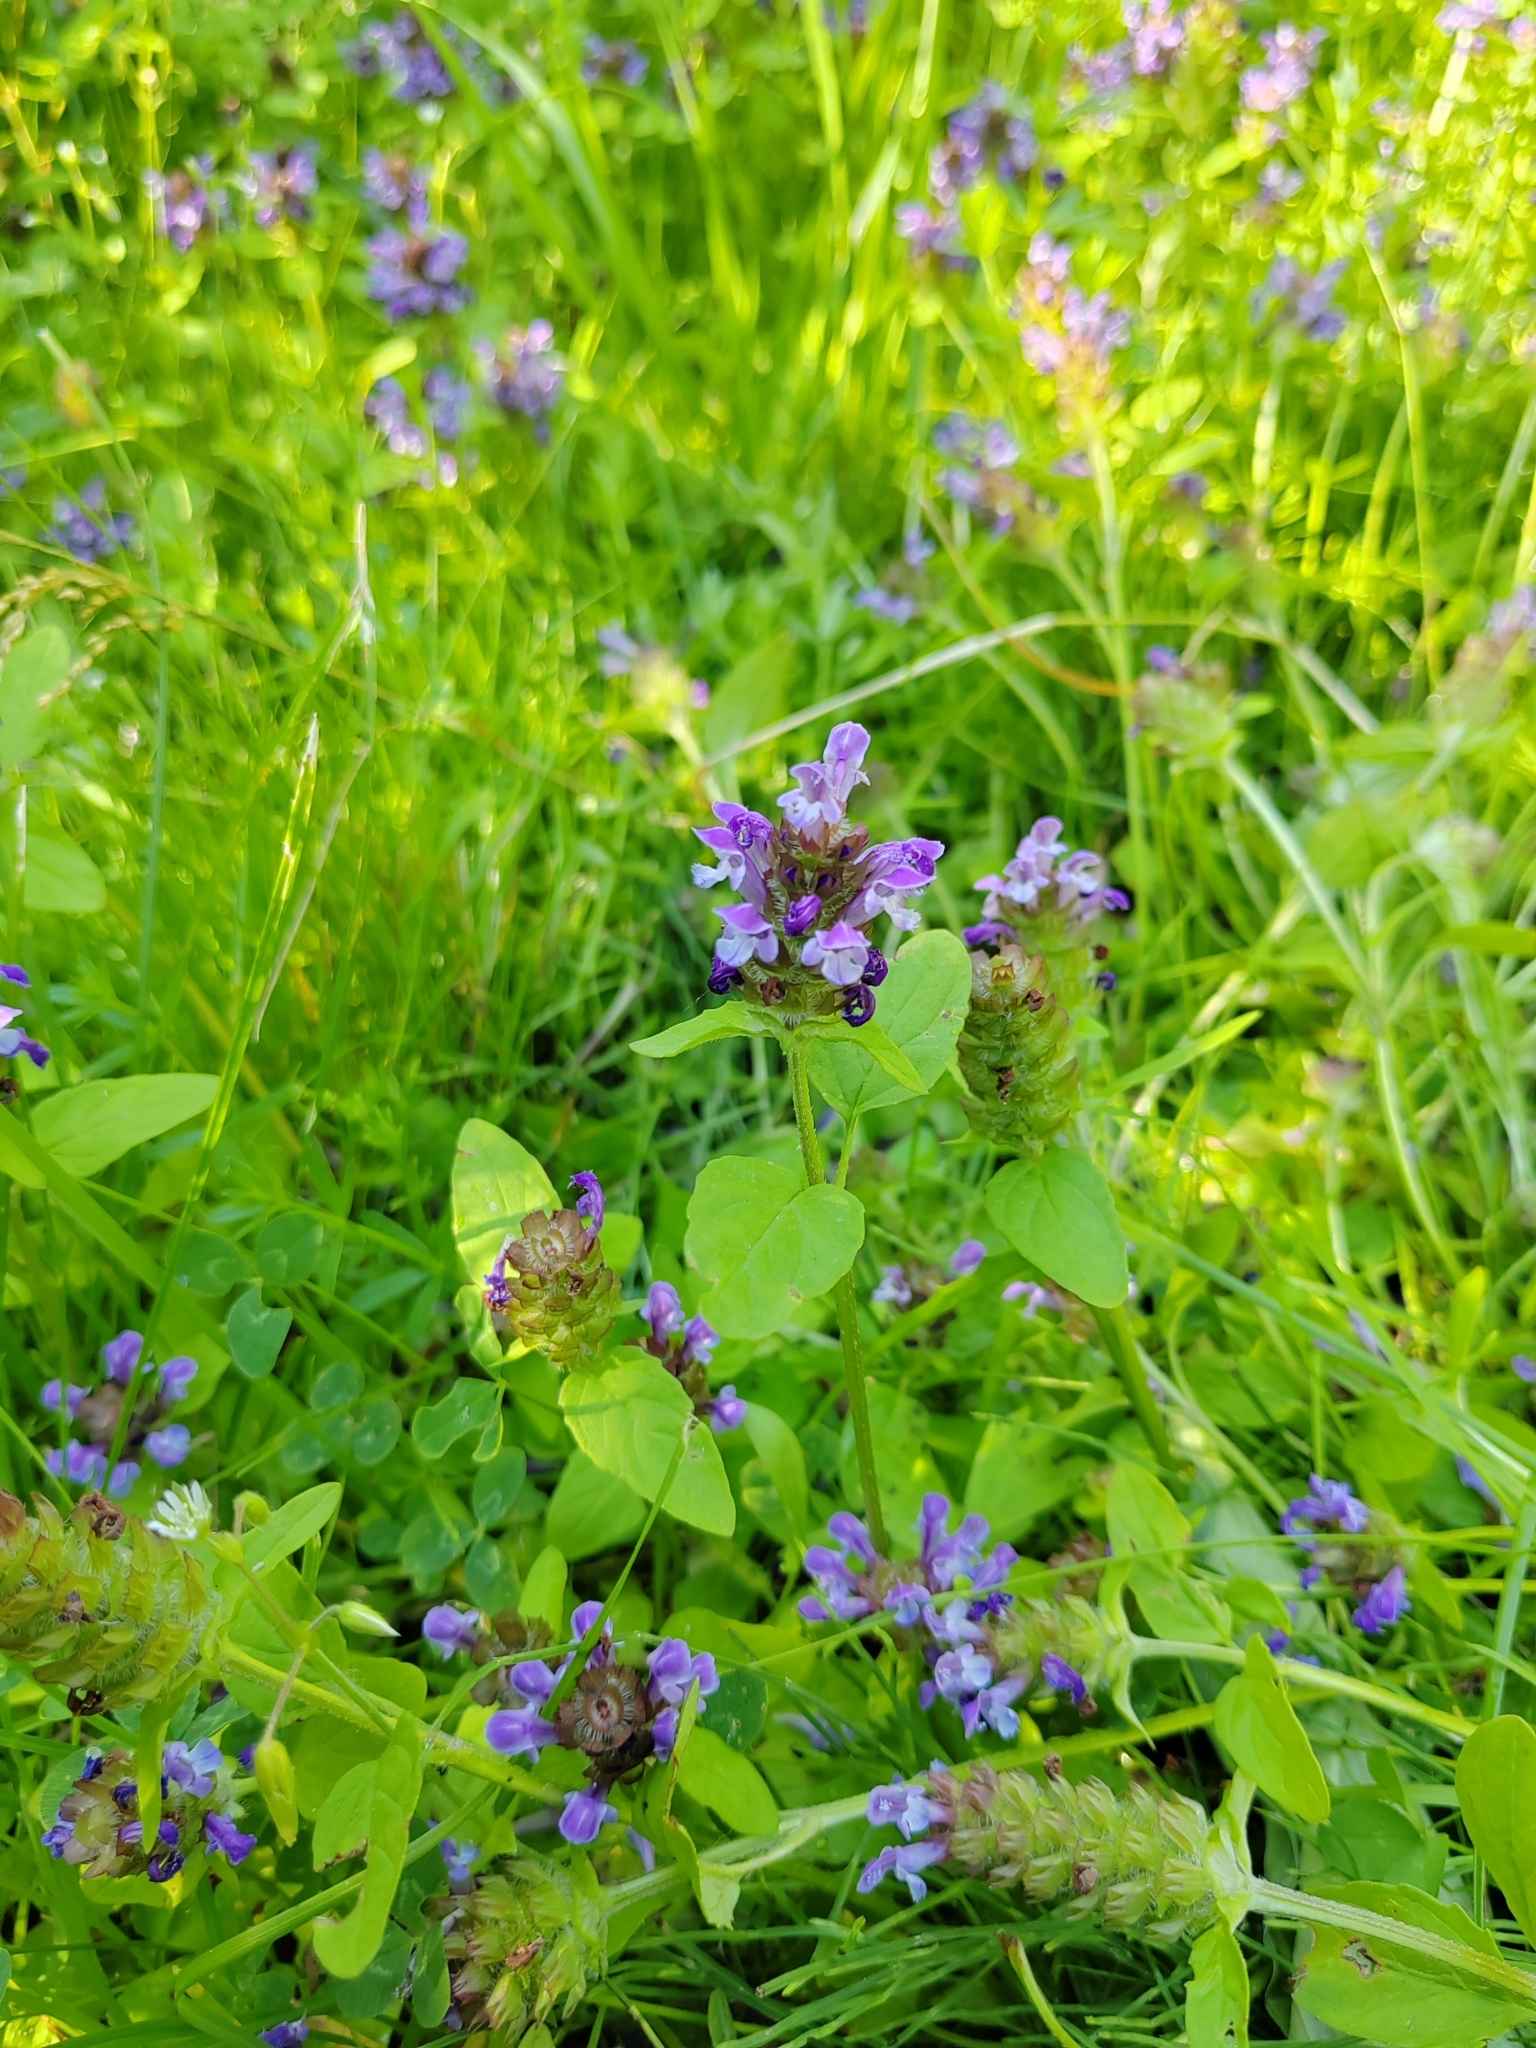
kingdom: Plantae
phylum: Tracheophyta
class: Magnoliopsida
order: Lamiales
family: Lamiaceae
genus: Prunella
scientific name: Prunella vulgaris
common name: Heal-all
